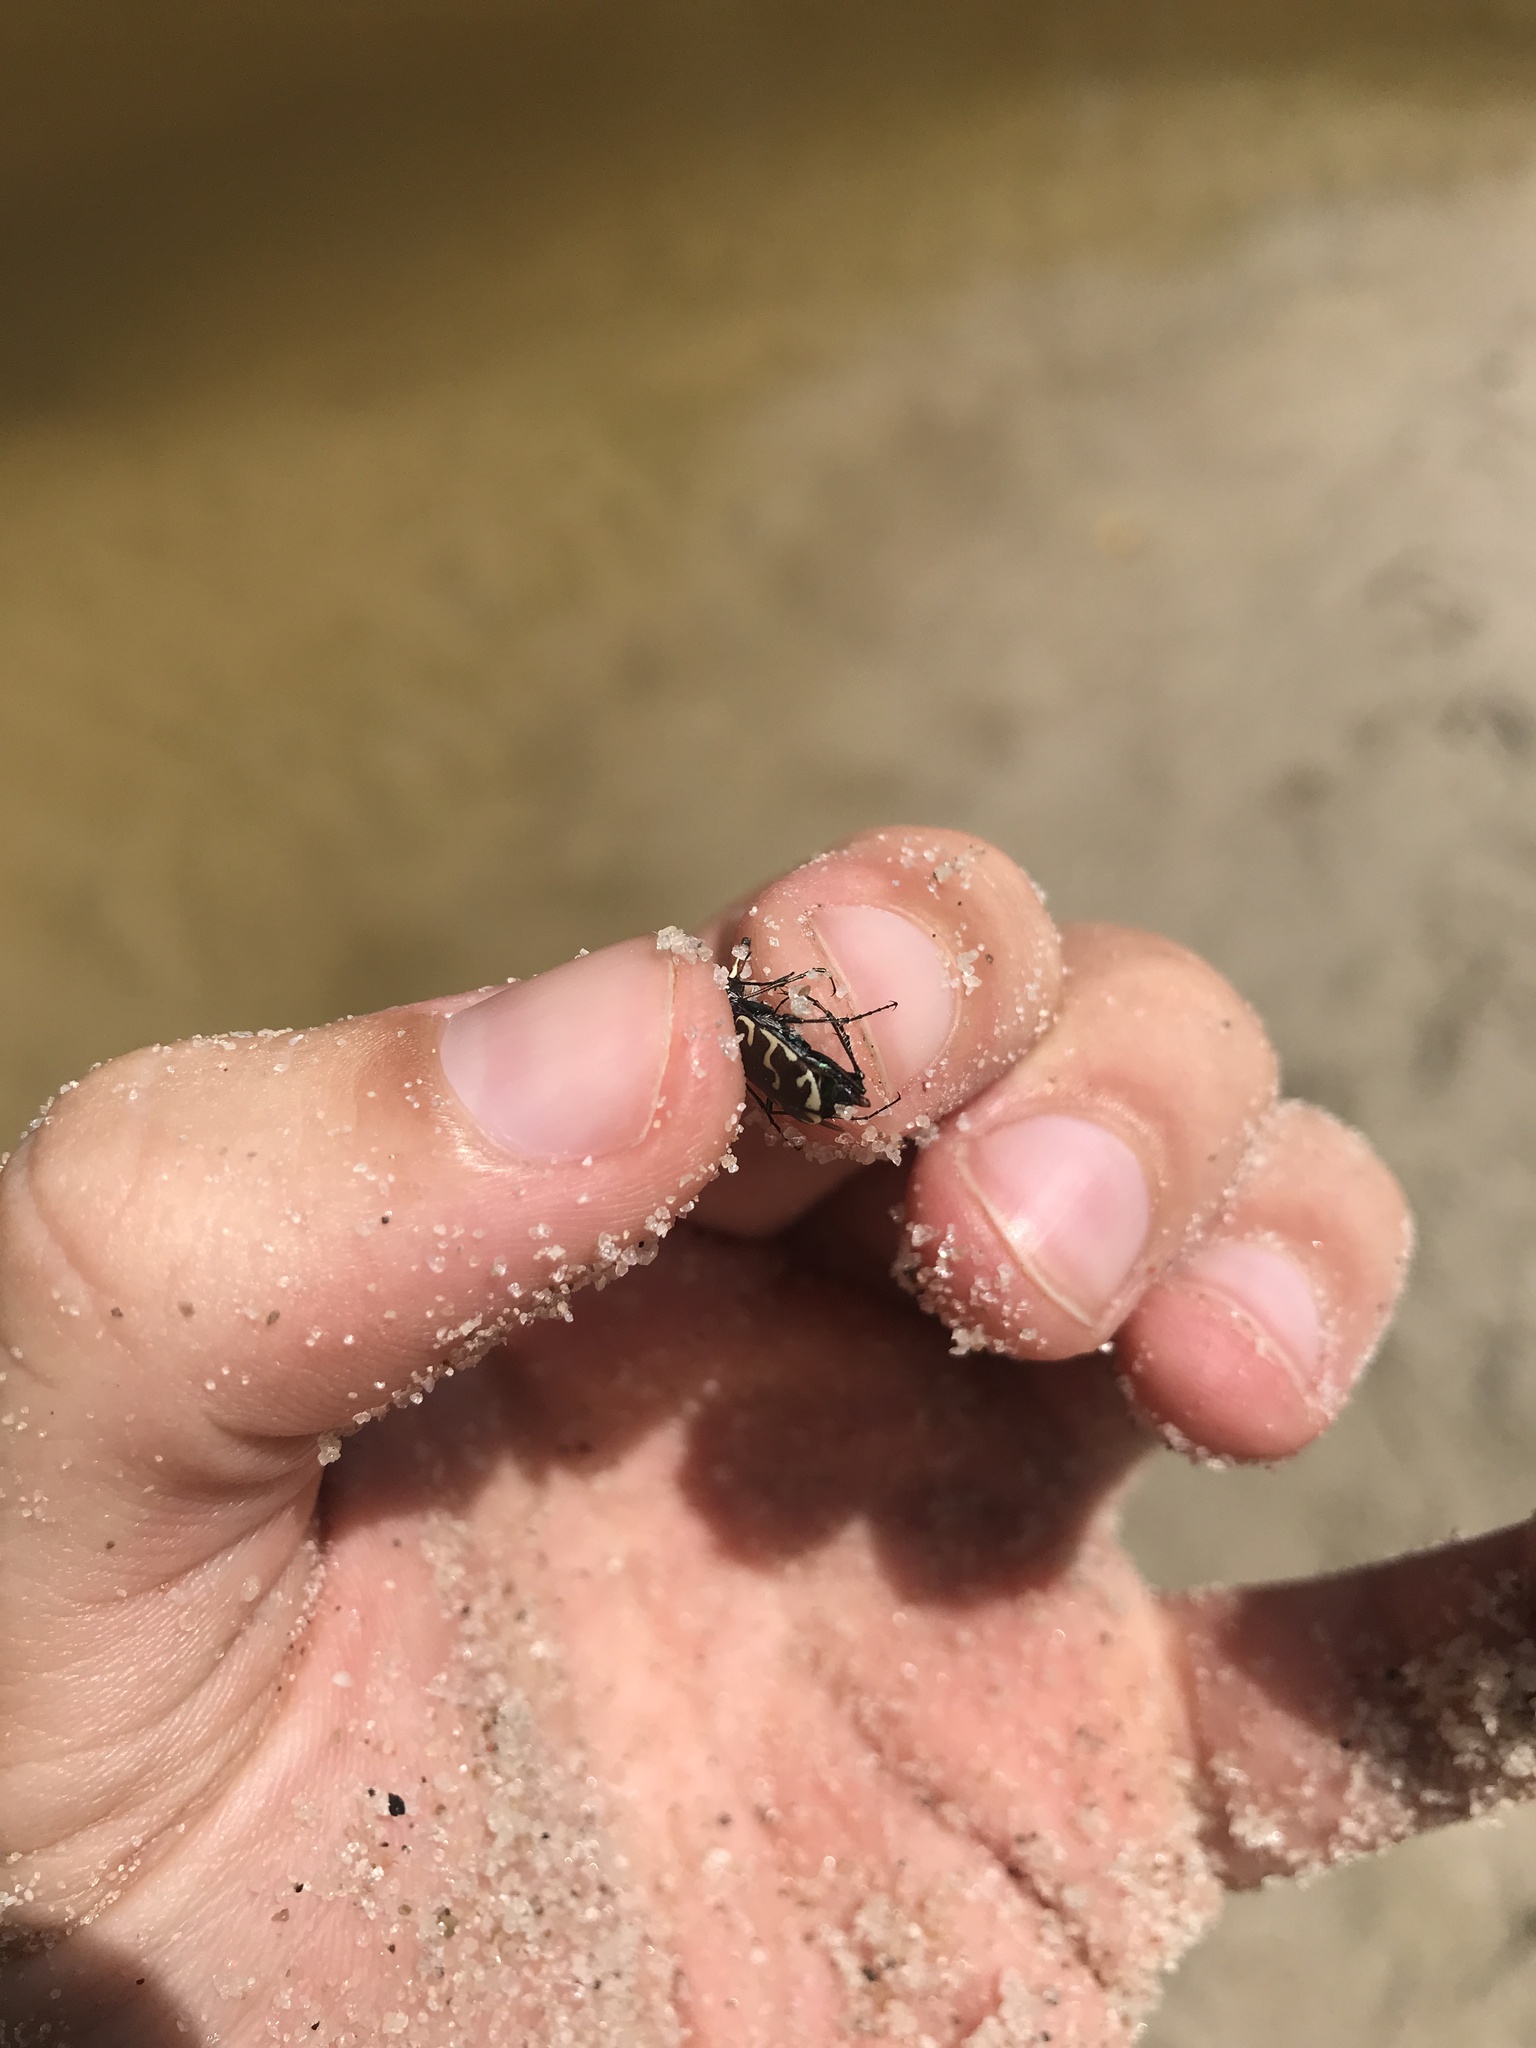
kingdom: Animalia
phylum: Arthropoda
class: Insecta
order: Coleoptera
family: Carabidae
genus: Cicindela
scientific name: Cicindela repanda
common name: Bronzed tiger beetle
